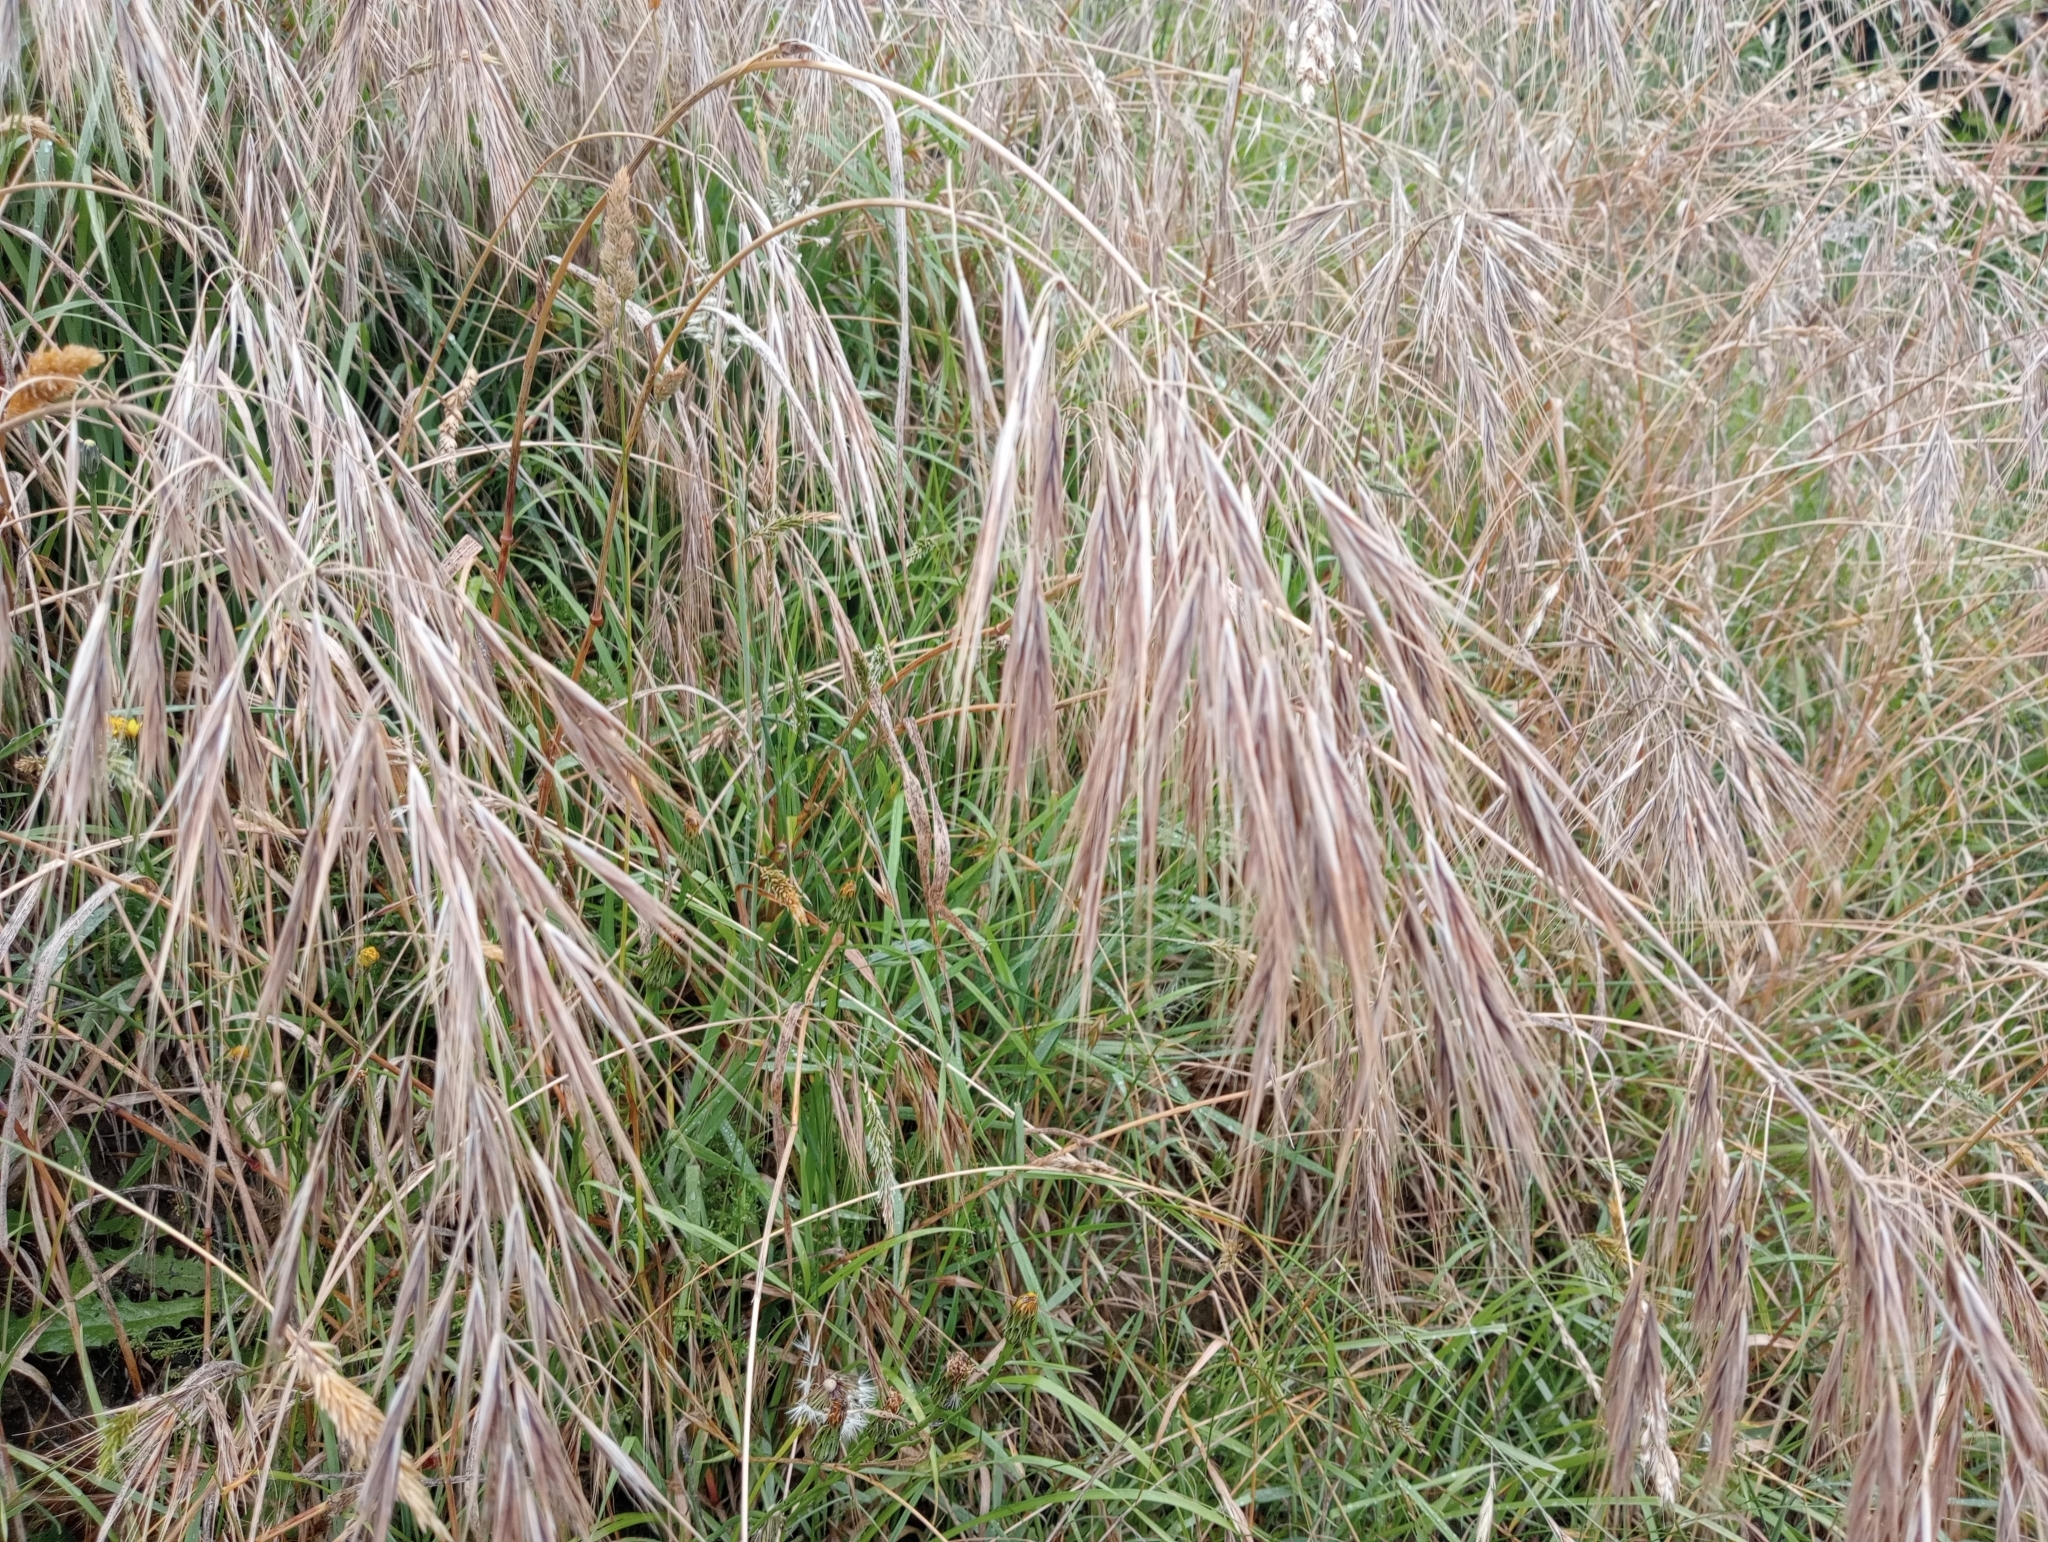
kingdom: Plantae
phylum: Tracheophyta
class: Liliopsida
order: Poales
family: Poaceae
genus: Bromus
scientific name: Bromus diandrus
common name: Ripgut brome
